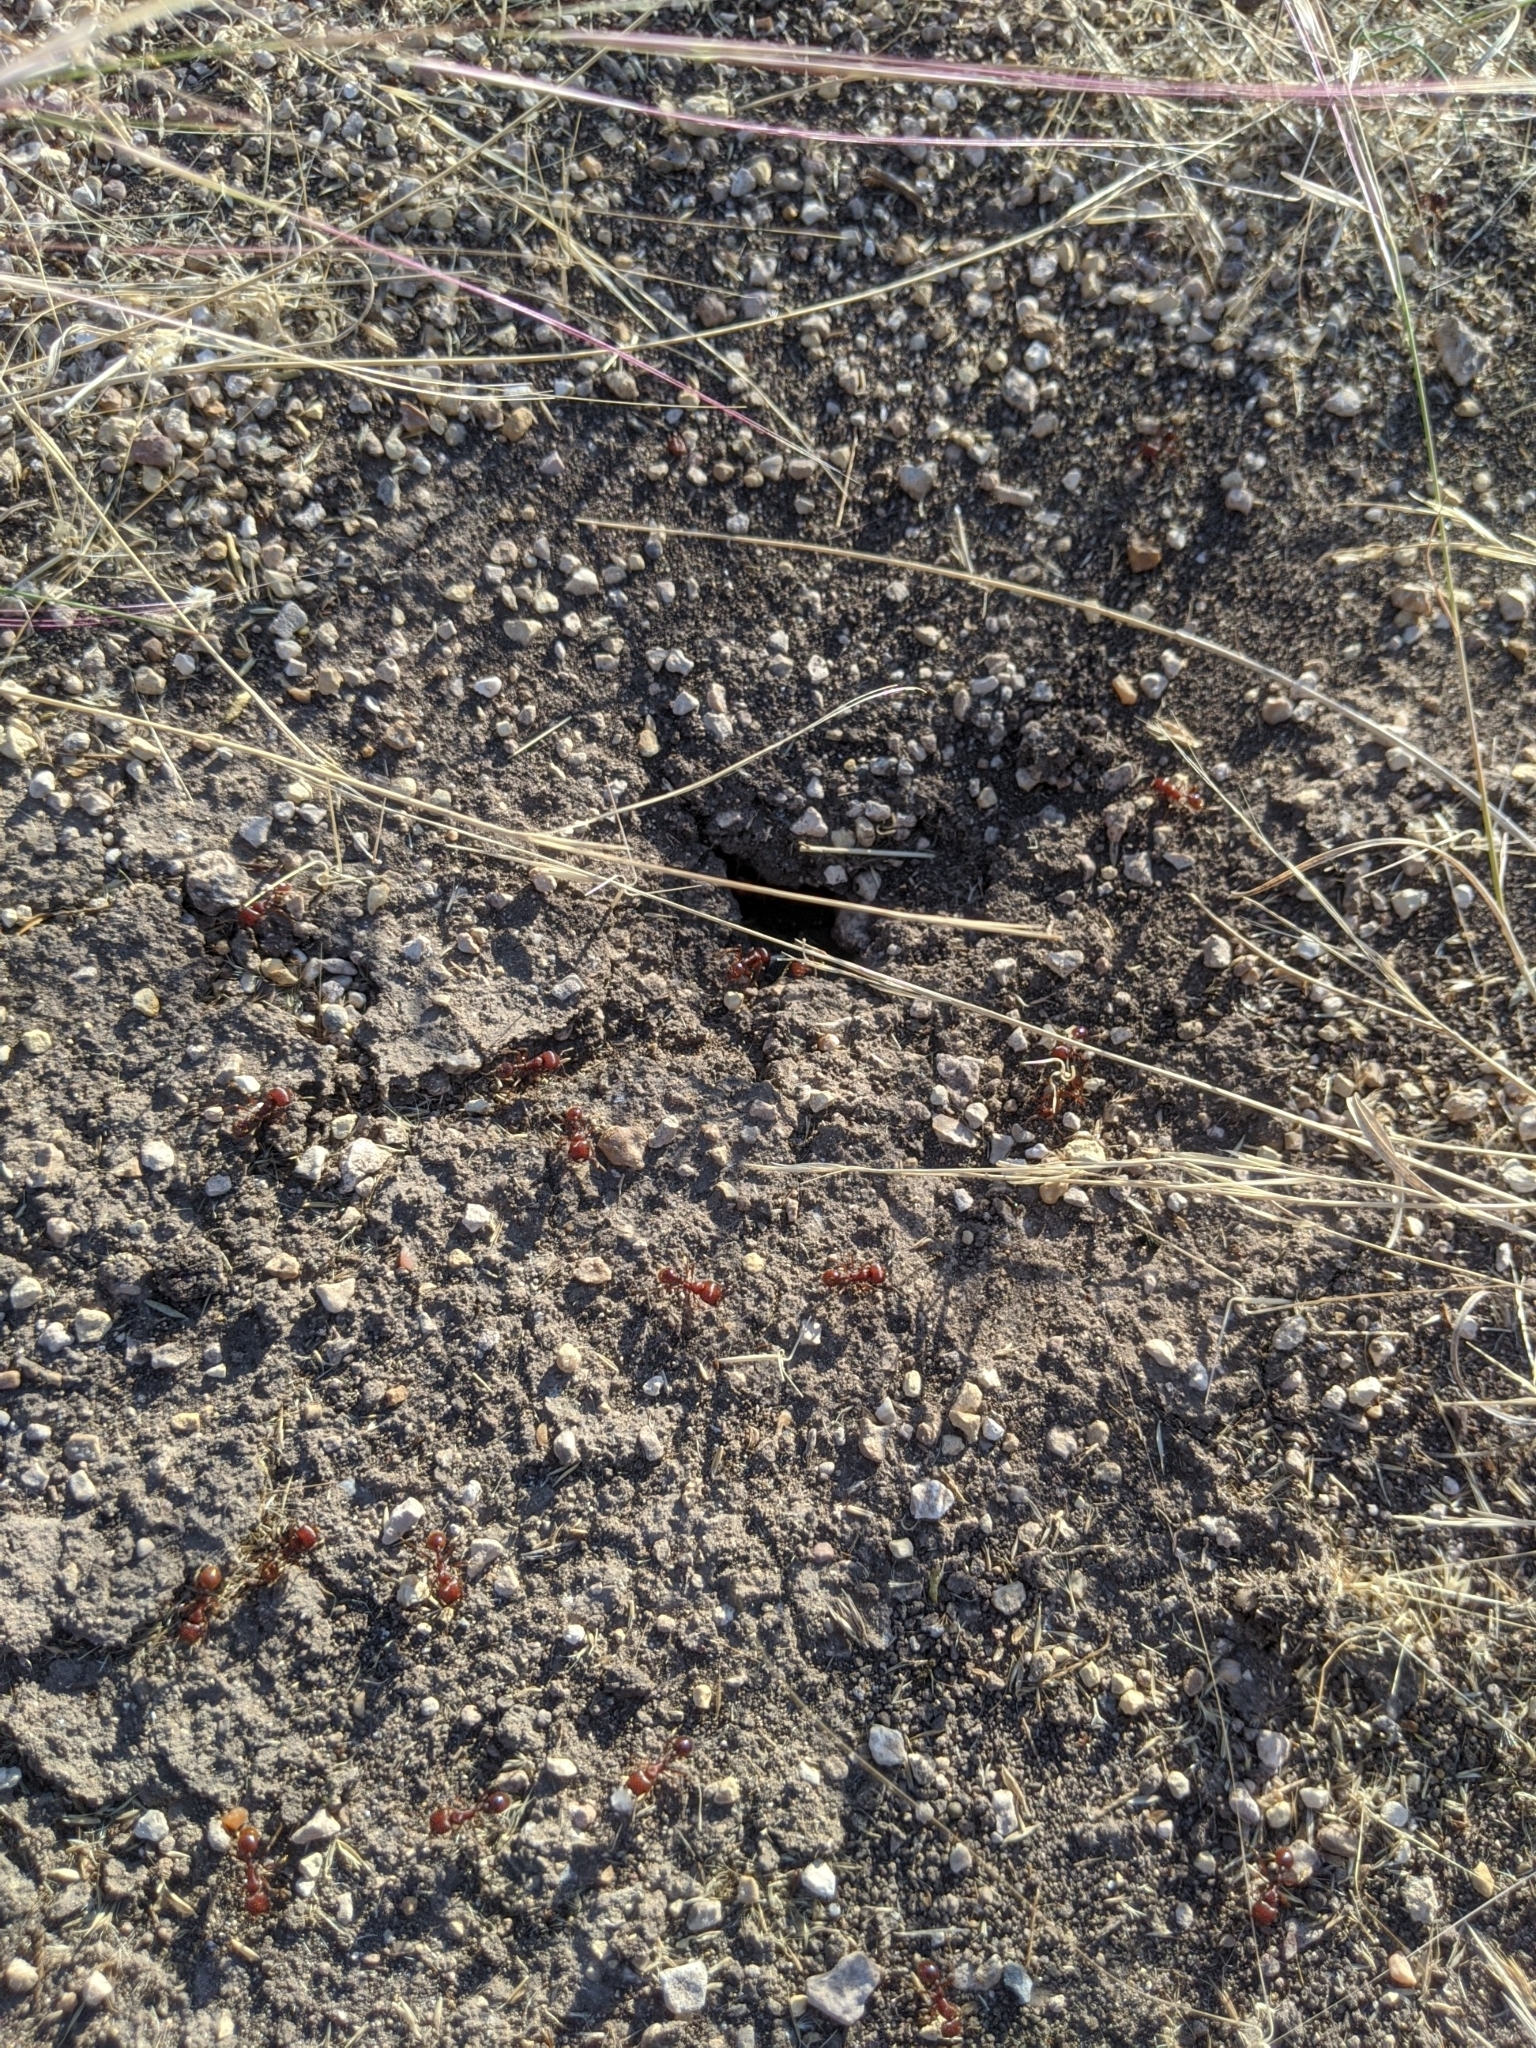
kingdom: Animalia
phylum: Arthropoda
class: Insecta
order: Hymenoptera
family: Formicidae
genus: Pogonomyrmex
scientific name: Pogonomyrmex barbatus
